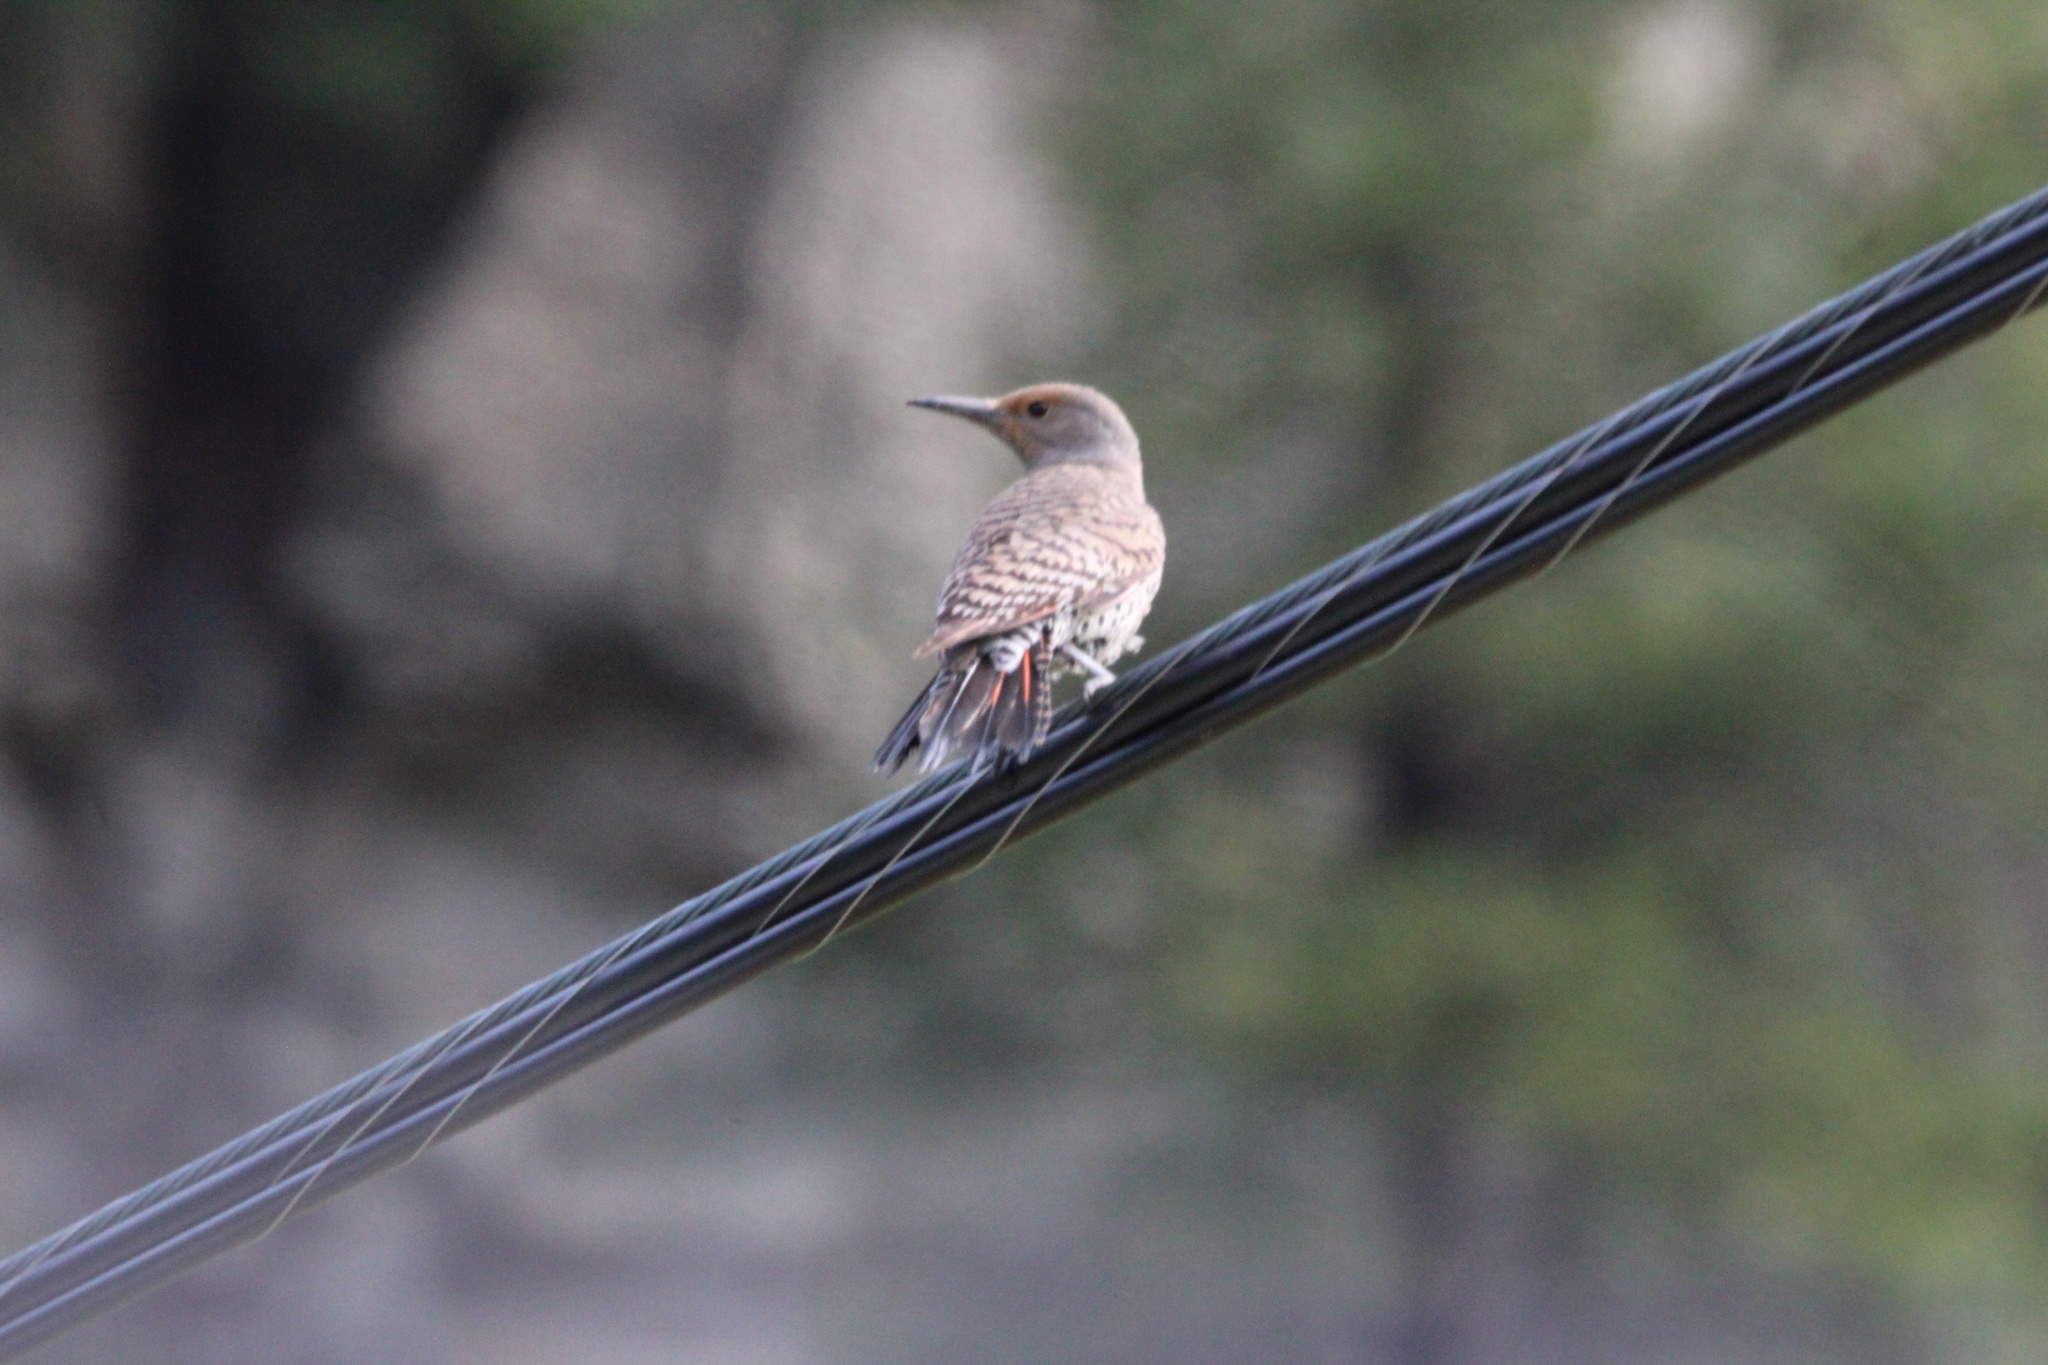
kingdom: Animalia
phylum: Chordata
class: Aves
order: Piciformes
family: Picidae
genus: Colaptes
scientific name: Colaptes auratus
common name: Northern flicker
